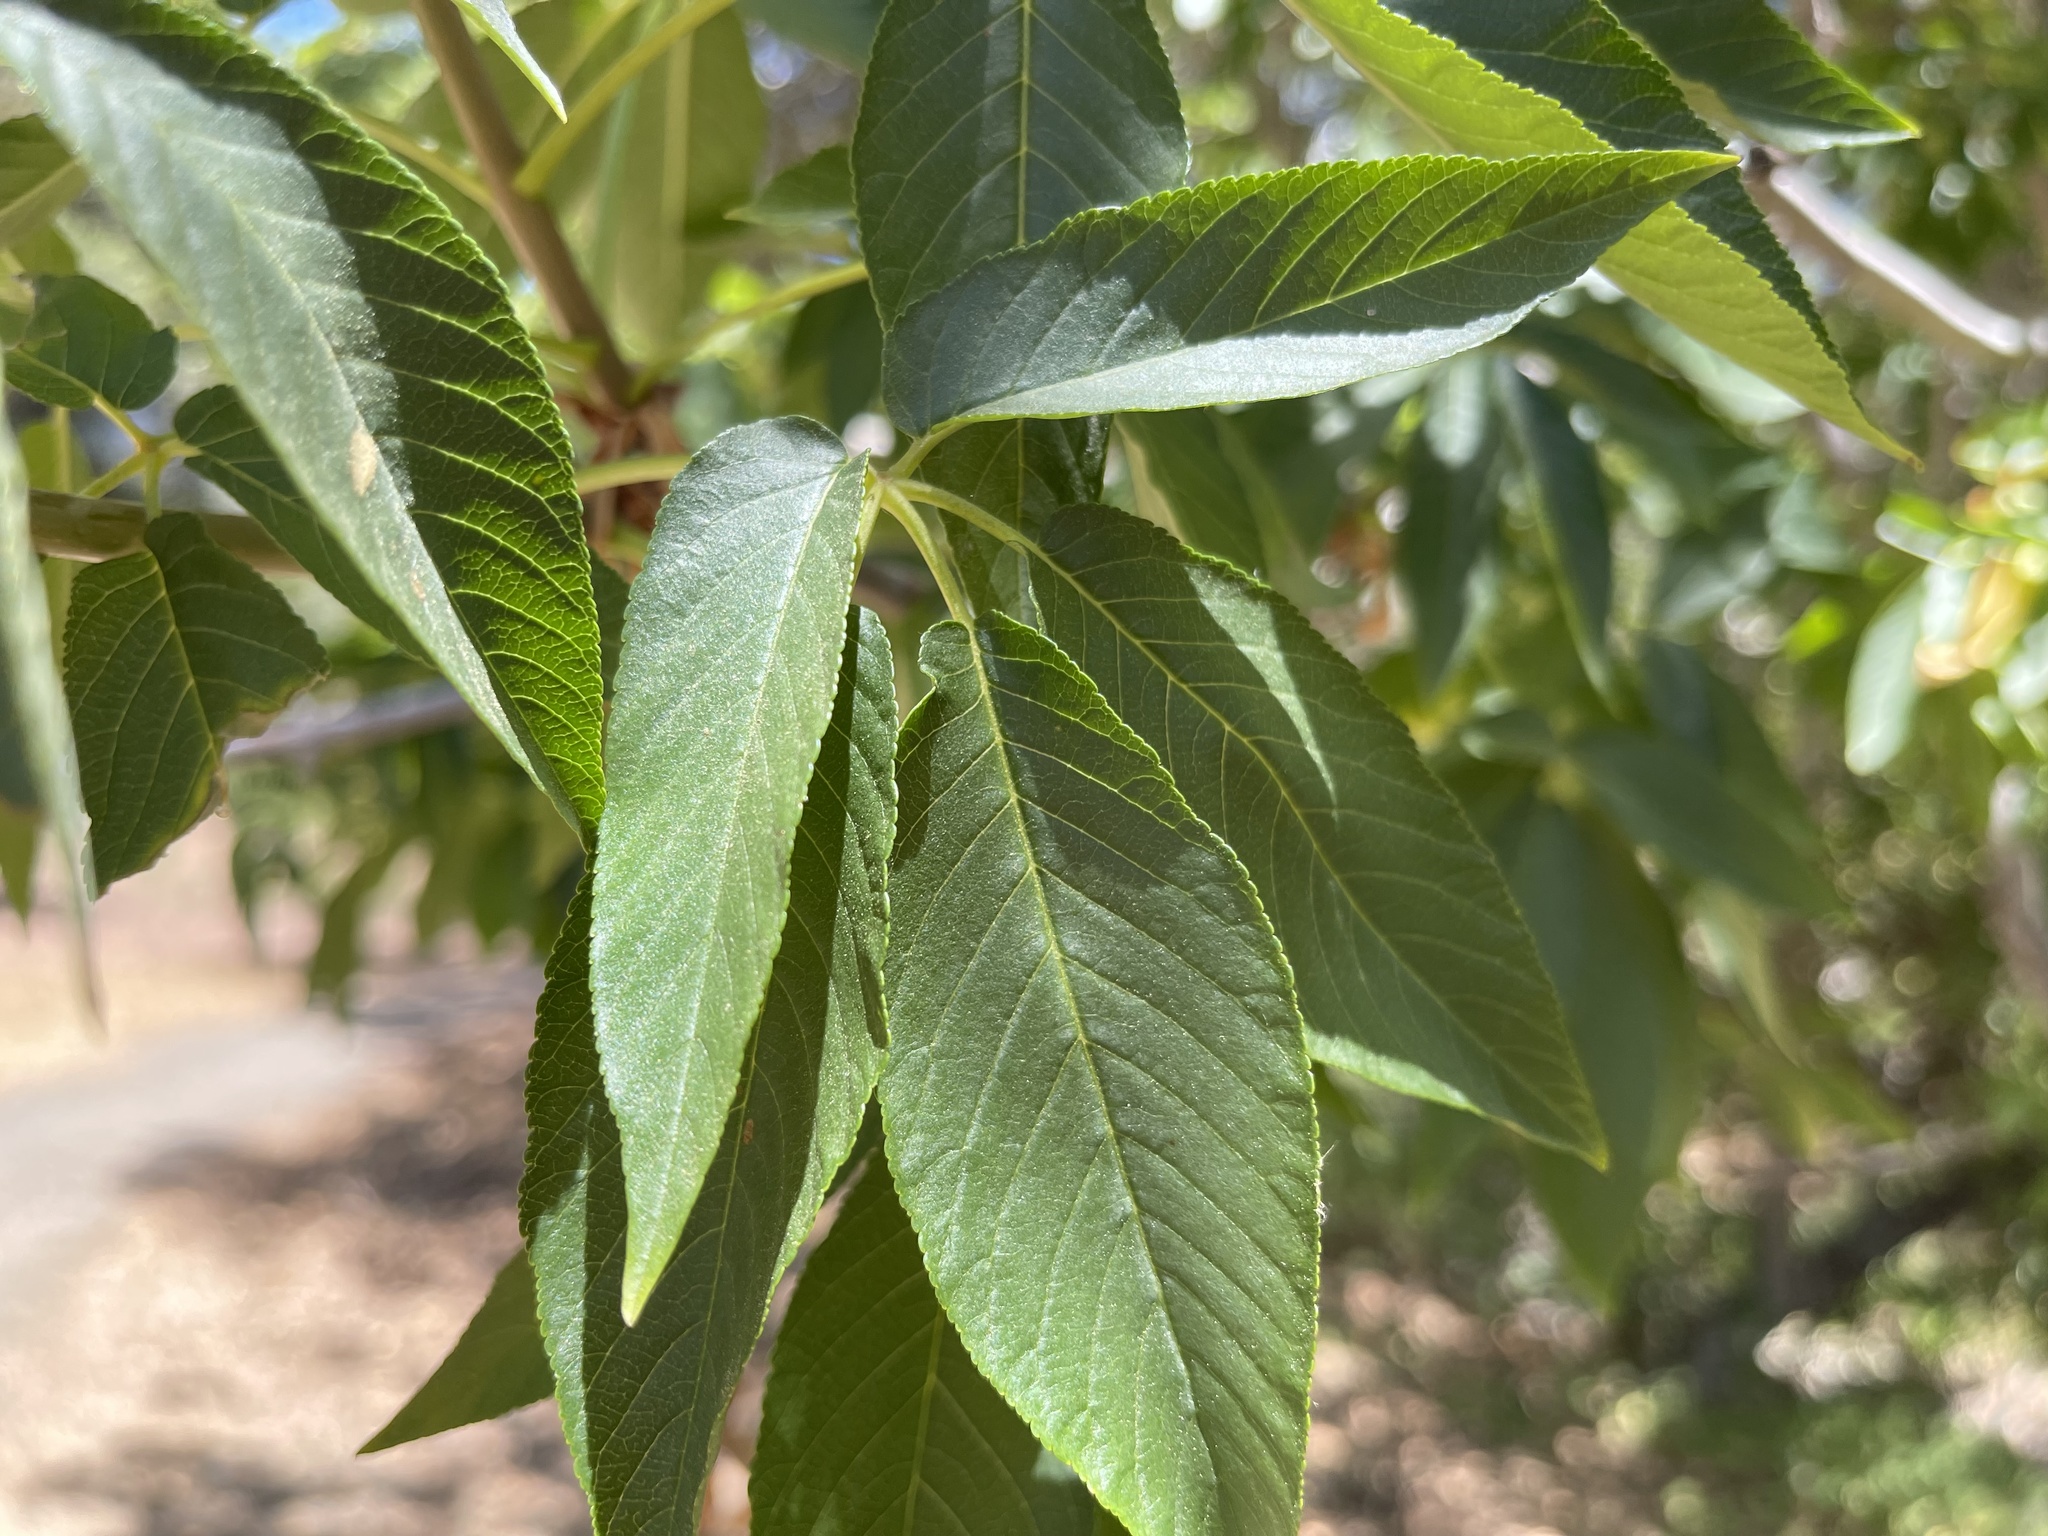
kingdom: Plantae
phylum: Tracheophyta
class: Magnoliopsida
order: Sapindales
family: Sapindaceae
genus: Aesculus
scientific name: Aesculus californica
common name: California buckeye
